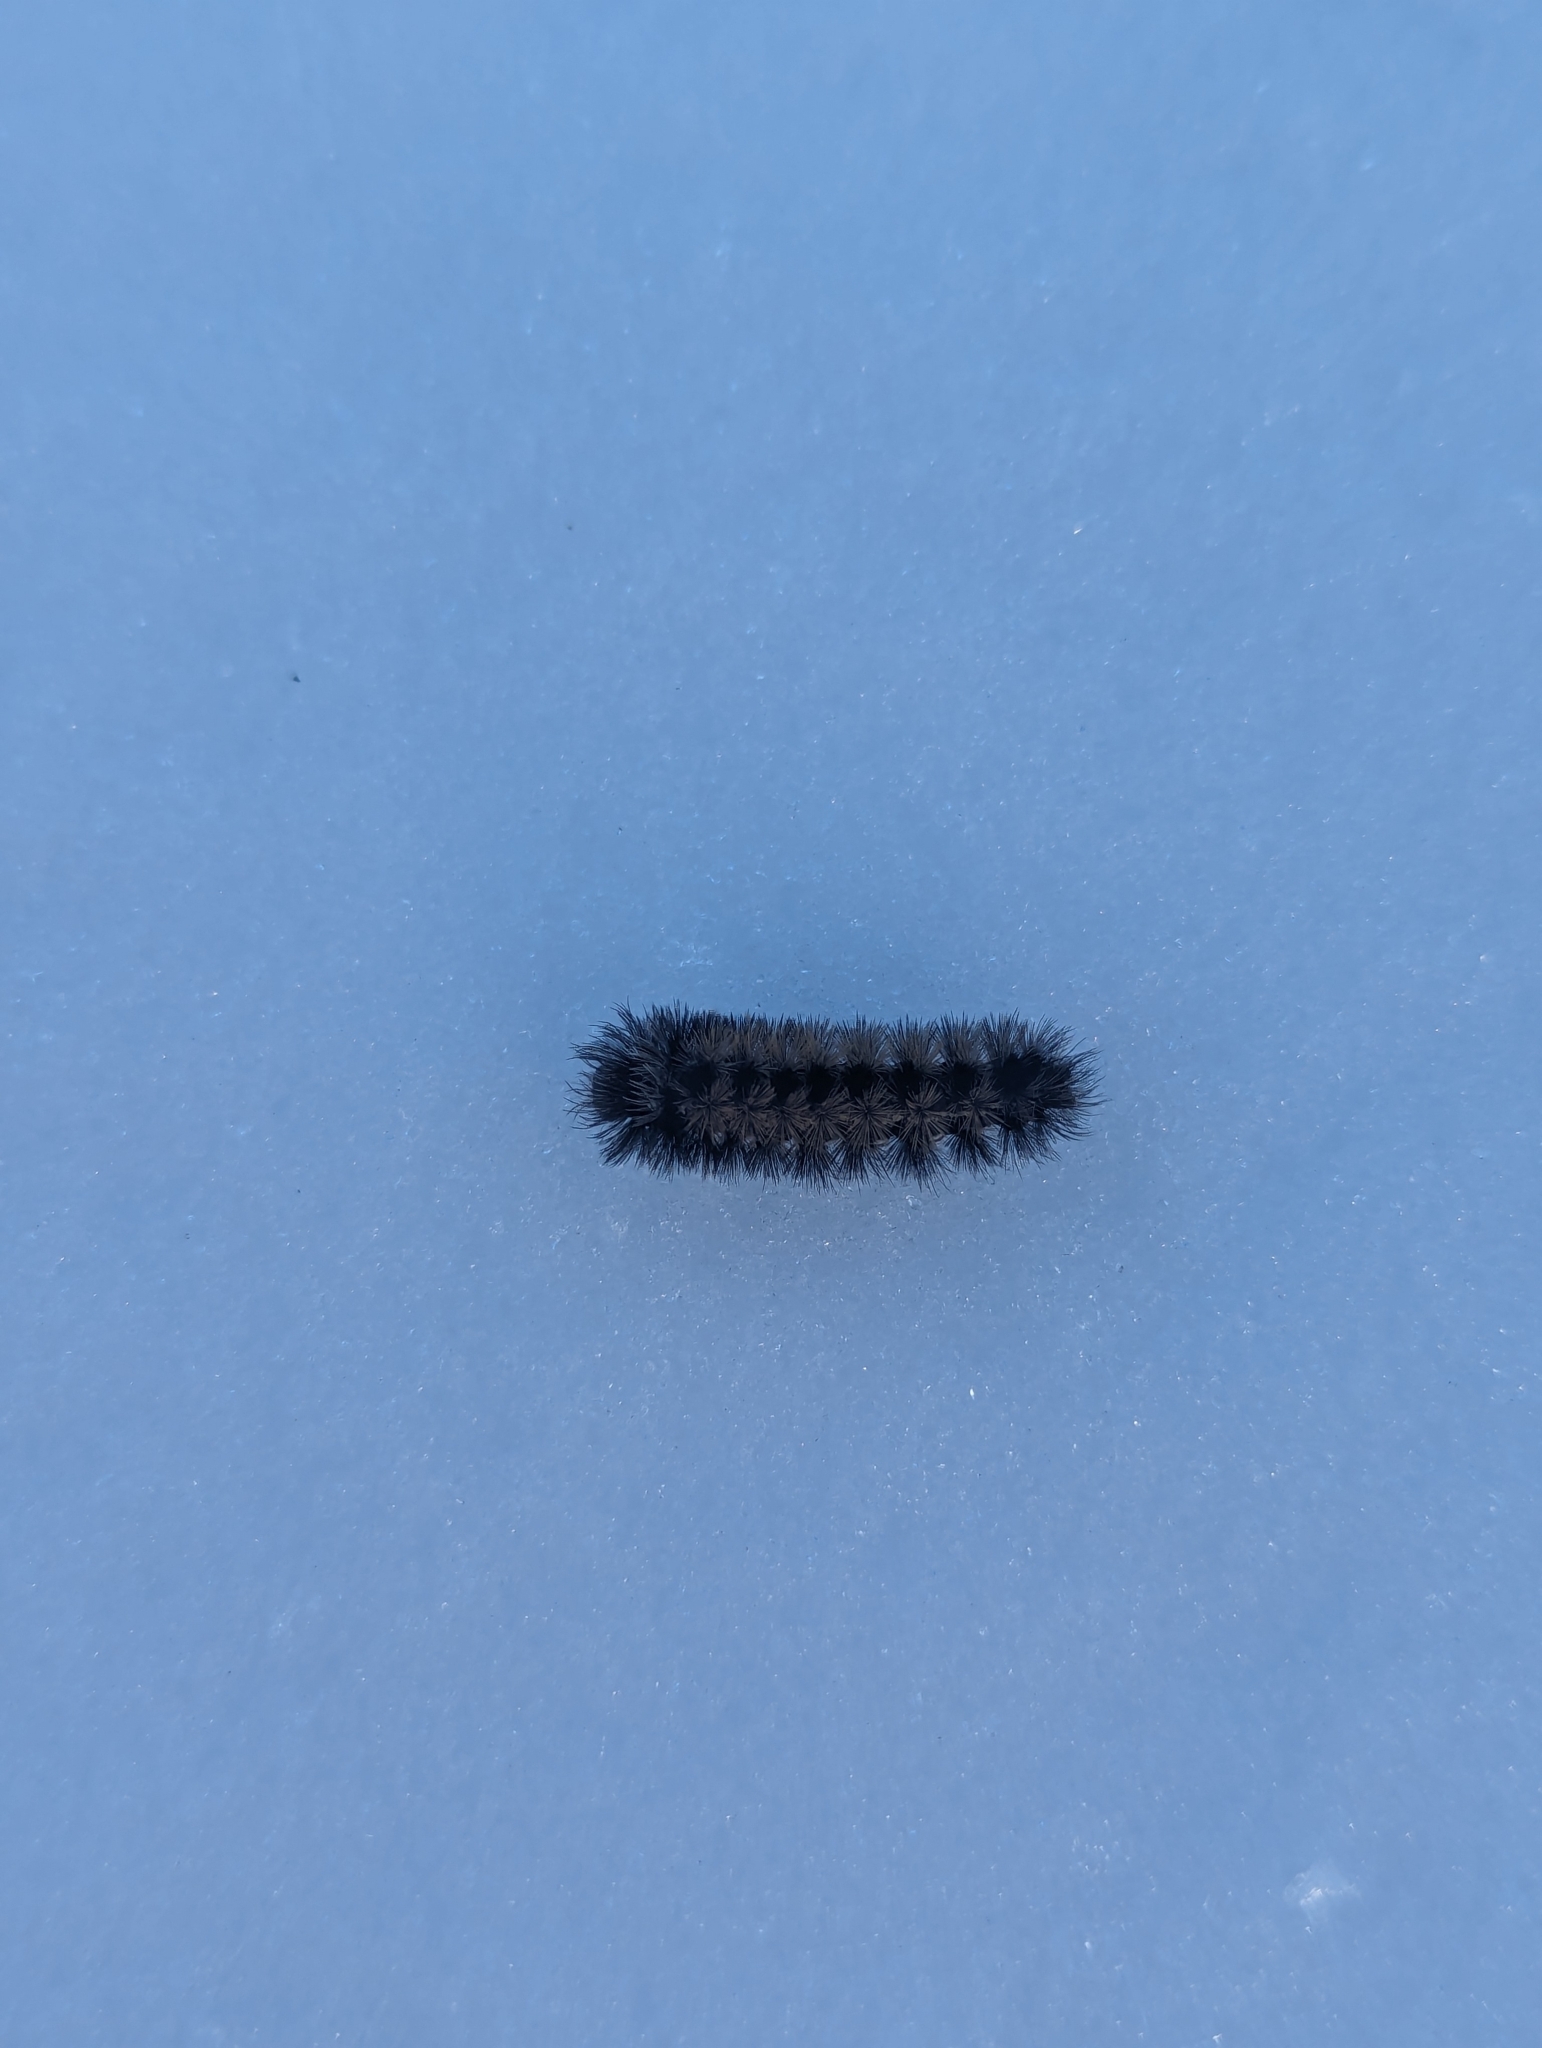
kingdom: Animalia
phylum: Arthropoda
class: Insecta
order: Lepidoptera
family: Erebidae
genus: Ctenucha
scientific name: Ctenucha virginica
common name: Virginia ctenucha moth
